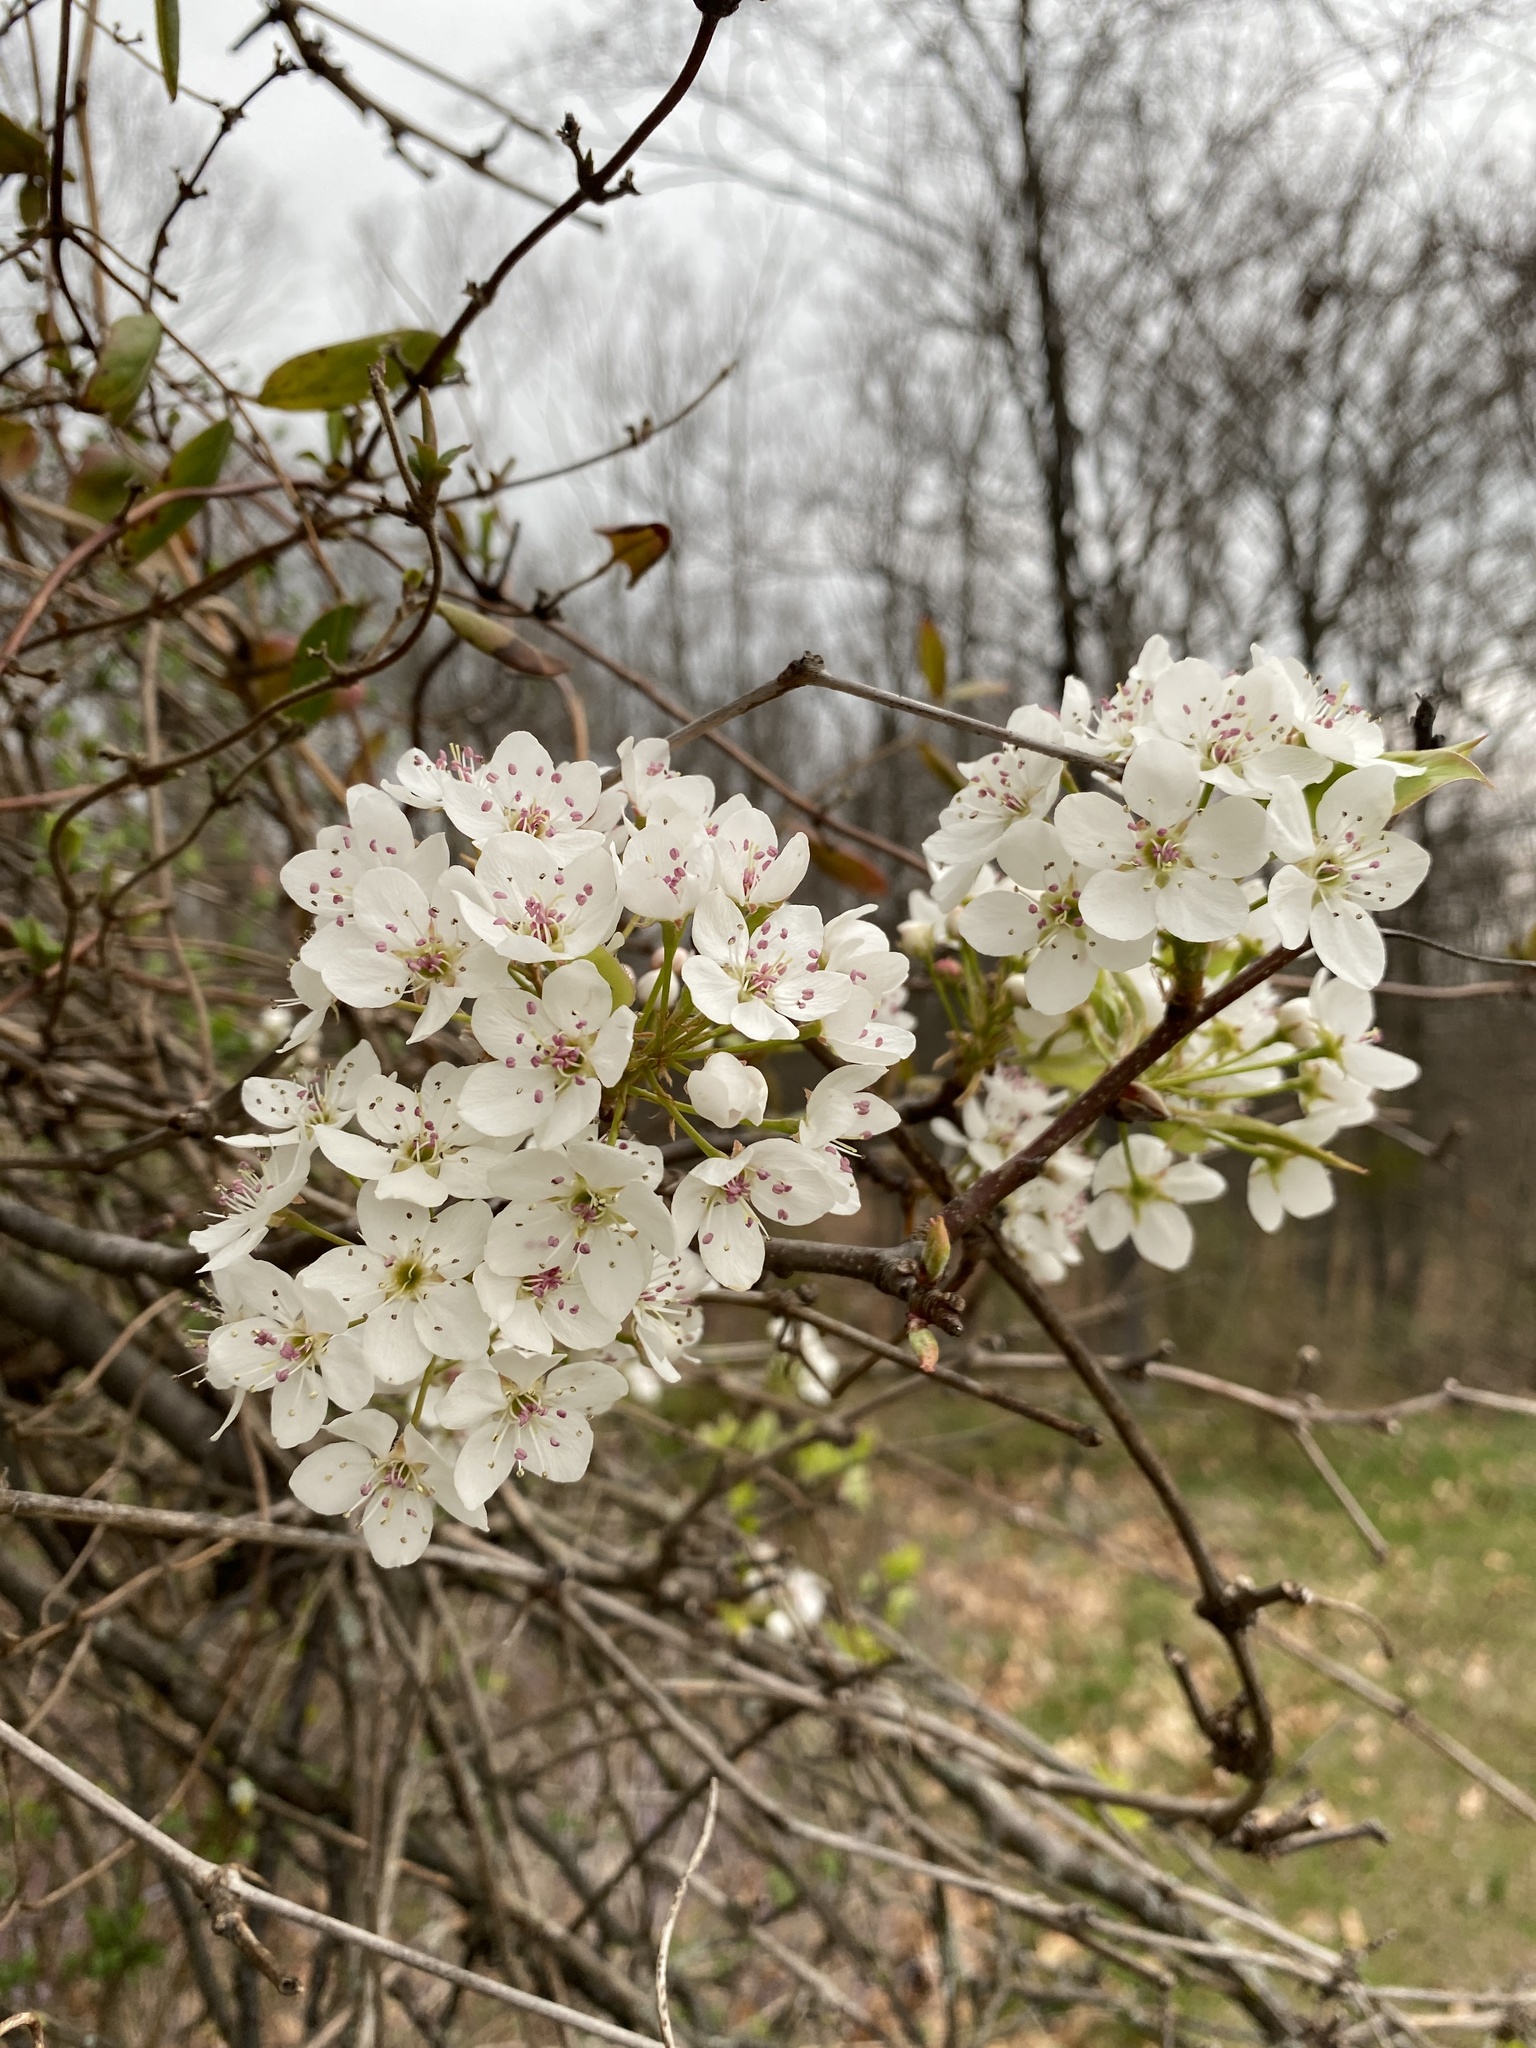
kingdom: Plantae
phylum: Tracheophyta
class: Magnoliopsida
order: Rosales
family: Rosaceae
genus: Pyrus
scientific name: Pyrus calleryana
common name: Callery pear
